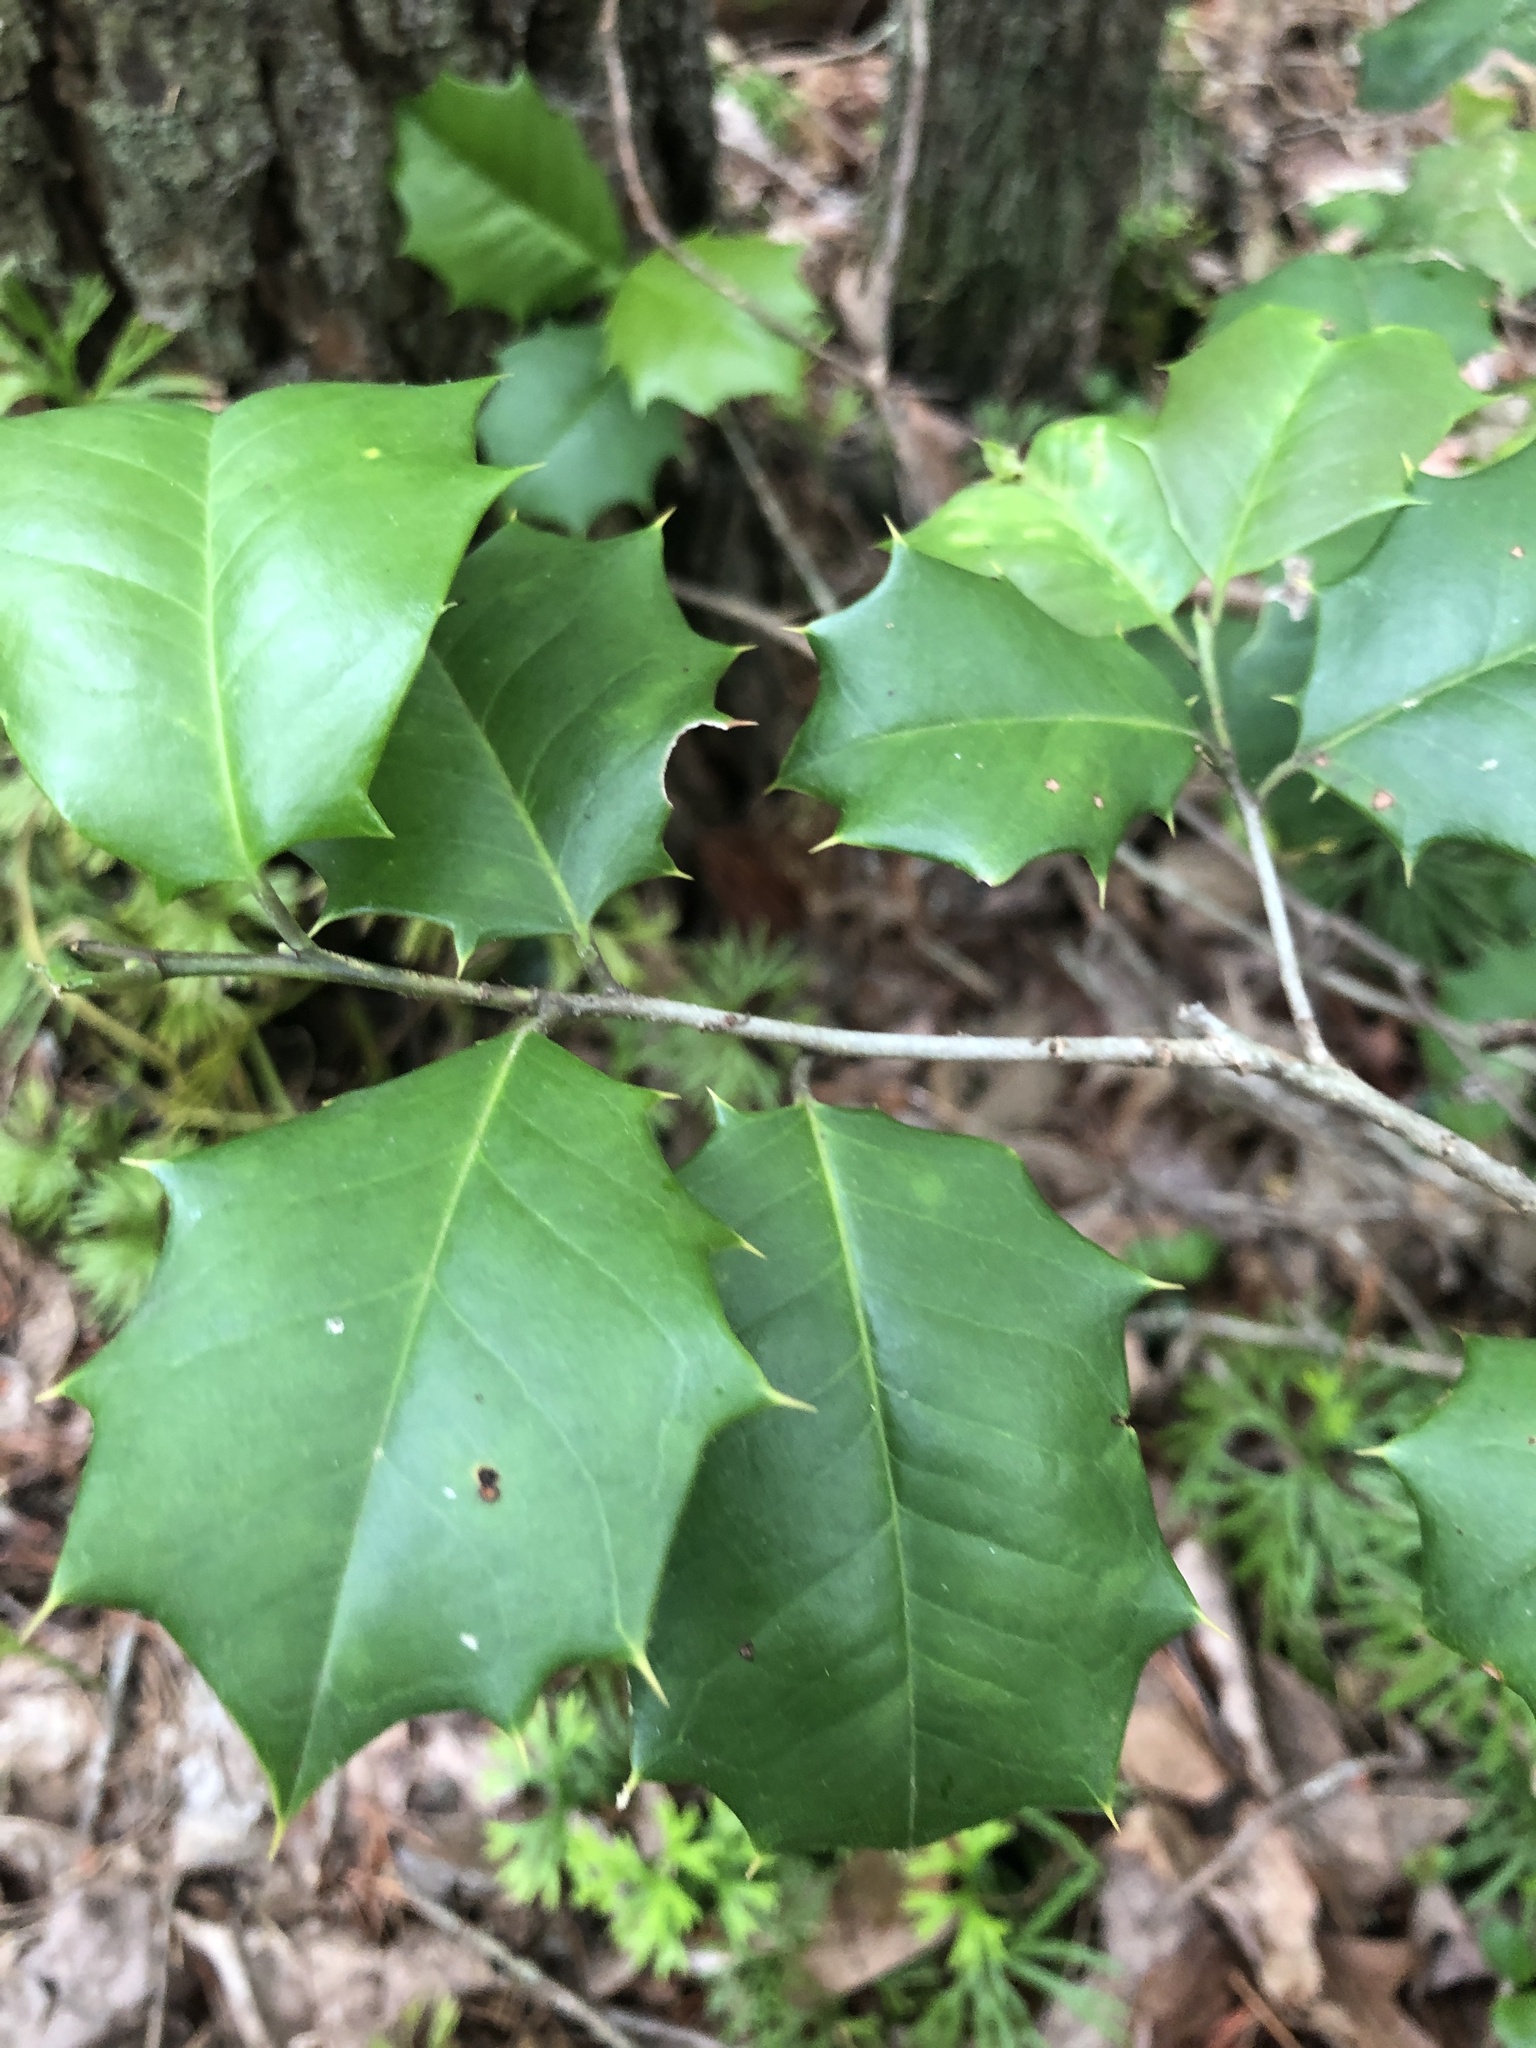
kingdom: Plantae
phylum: Tracheophyta
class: Magnoliopsida
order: Aquifoliales
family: Aquifoliaceae
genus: Ilex
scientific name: Ilex opaca
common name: American holly
